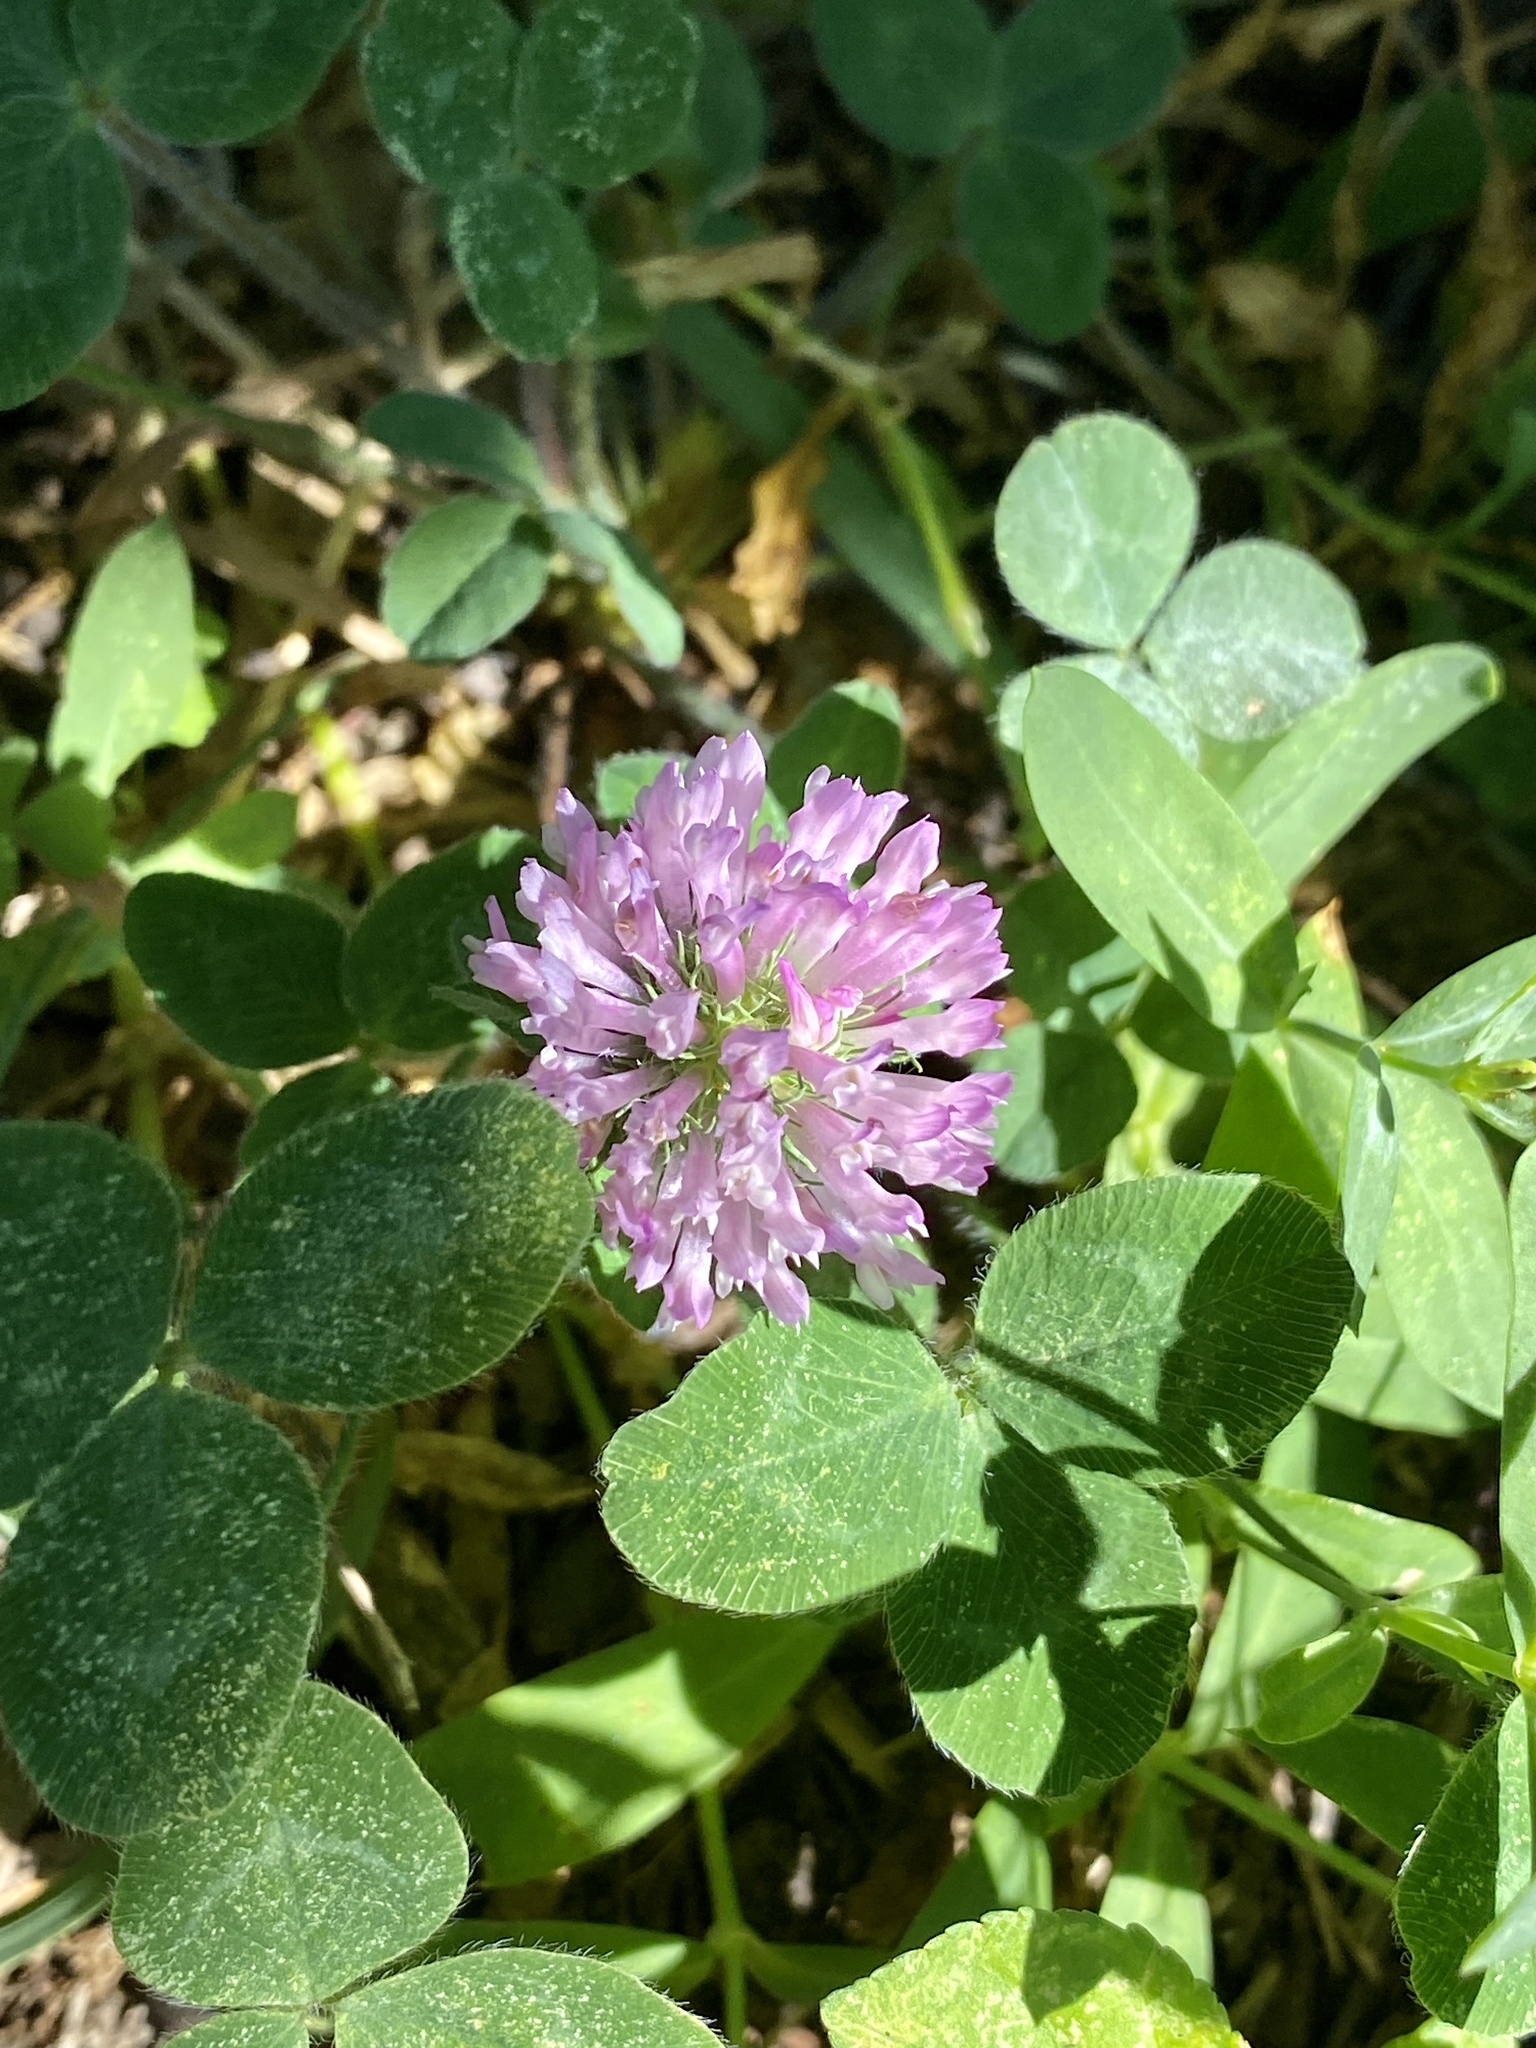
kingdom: Plantae
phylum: Tracheophyta
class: Magnoliopsida
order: Fabales
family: Fabaceae
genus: Trifolium
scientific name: Trifolium pratense
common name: Red clover
